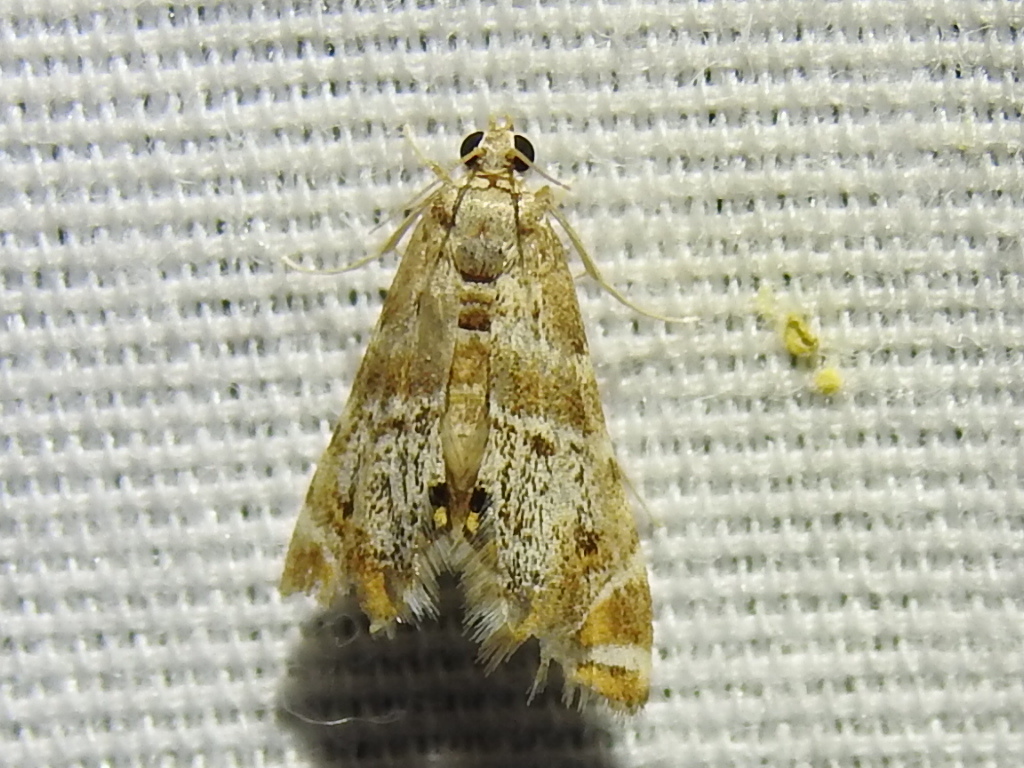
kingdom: Animalia
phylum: Arthropoda
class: Insecta
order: Lepidoptera
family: Crambidae
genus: Petrophila
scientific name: Petrophila fulicalis
